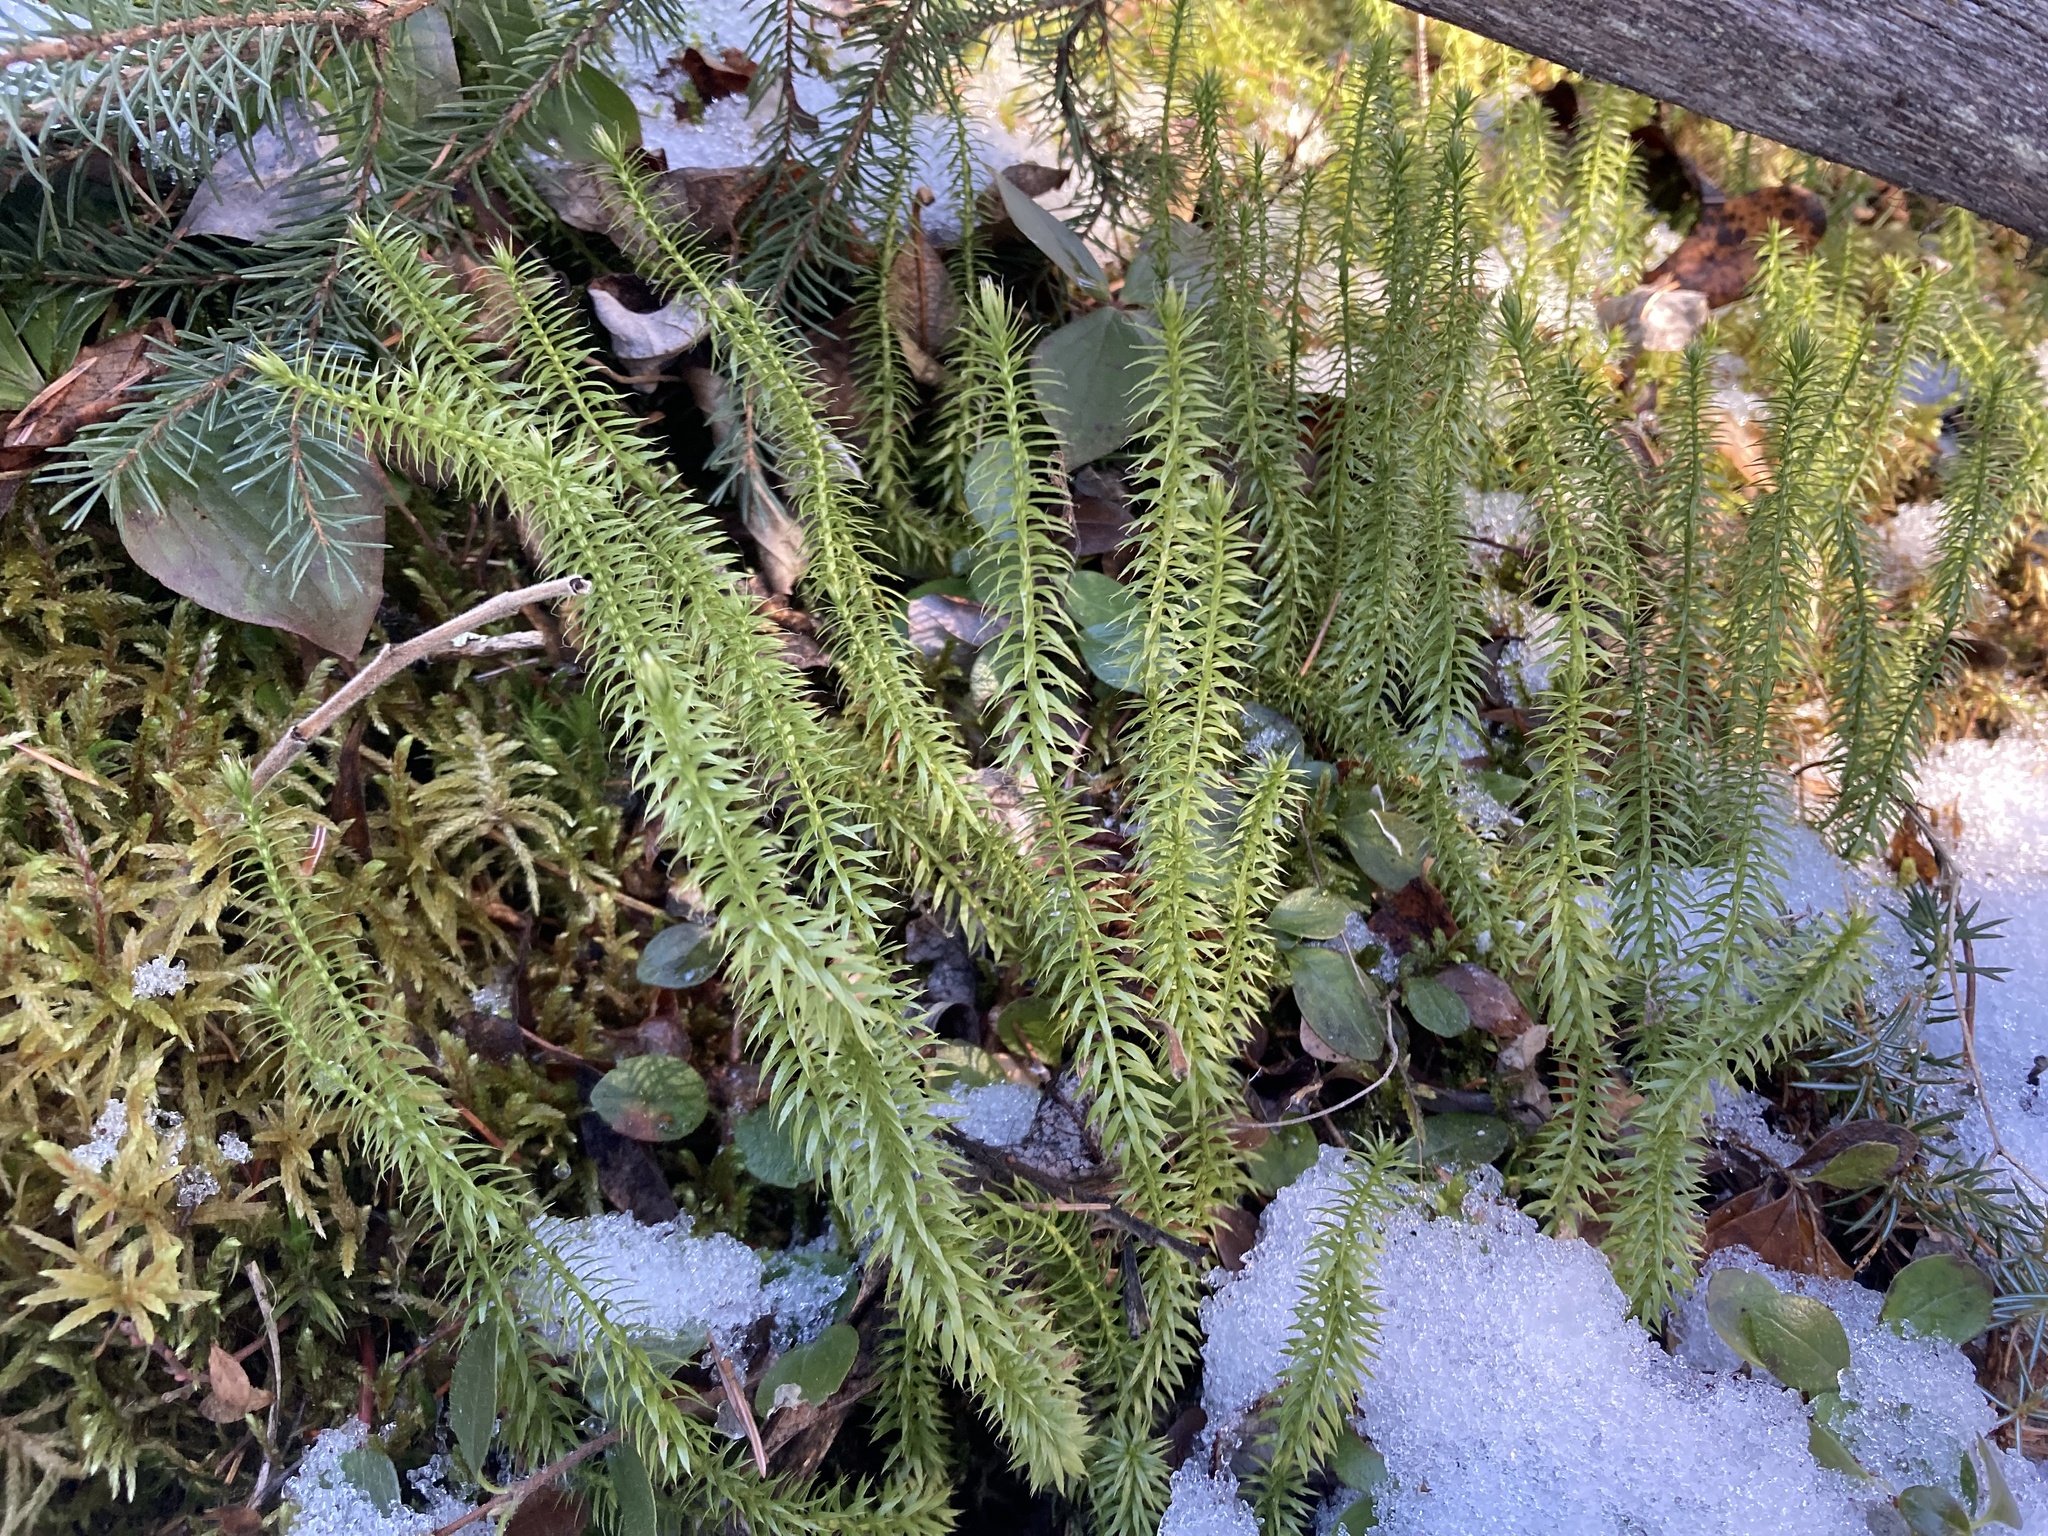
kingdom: Plantae
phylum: Tracheophyta
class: Lycopodiopsida
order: Lycopodiales
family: Lycopodiaceae
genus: Spinulum
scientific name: Spinulum annotinum
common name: Interrupted club-moss
